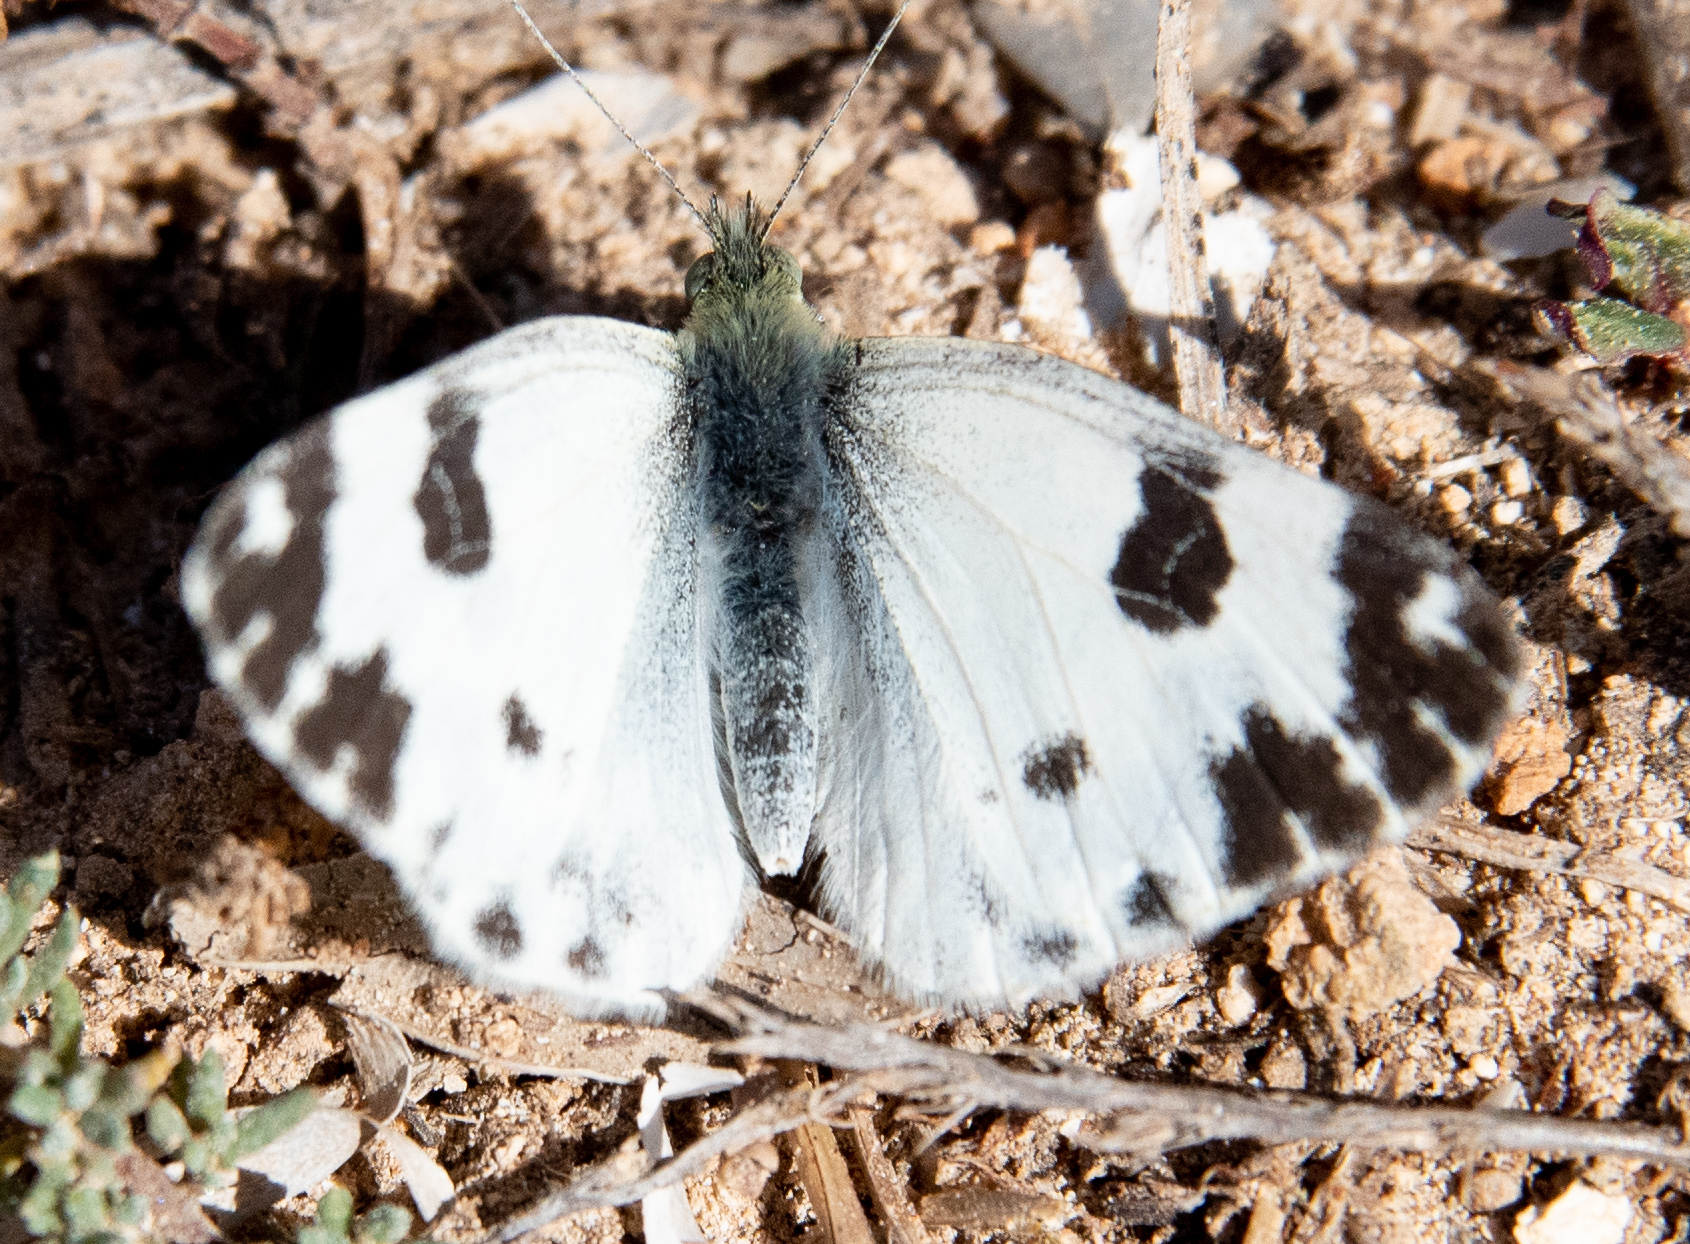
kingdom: Animalia
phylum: Arthropoda
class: Insecta
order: Lepidoptera
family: Pieridae
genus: Pontia
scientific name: Pontia daplidice
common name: Bath white
